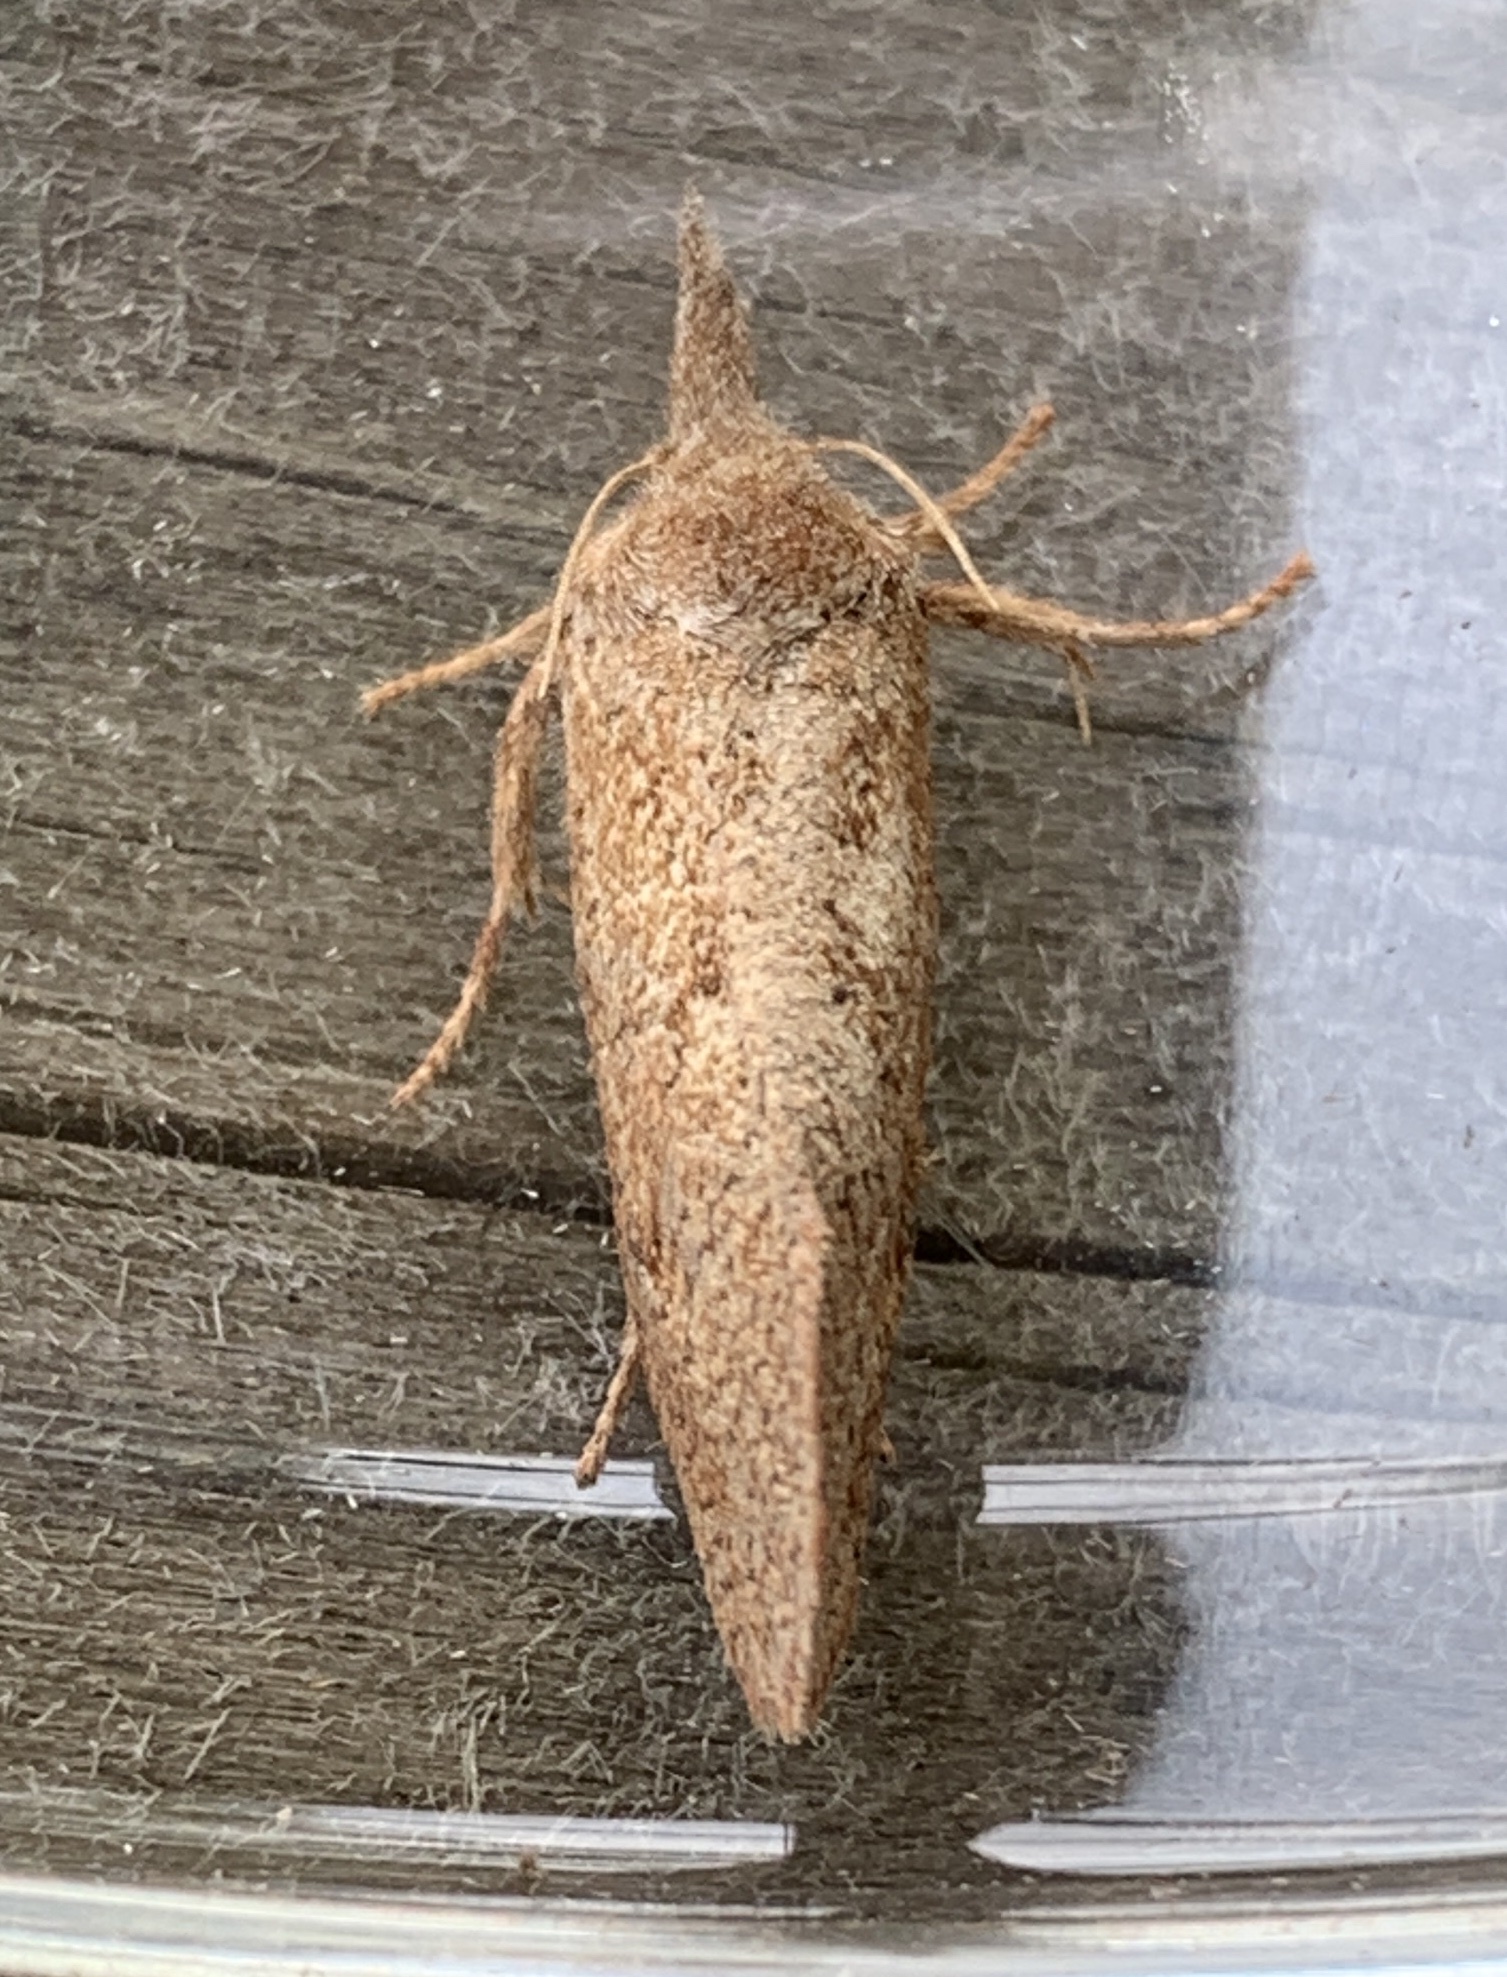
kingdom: Animalia
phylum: Arthropoda
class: Insecta
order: Lepidoptera
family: Tineidae
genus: Acrolophus
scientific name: Acrolophus plumifrontella
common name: Eastern grass tubeworm moth
